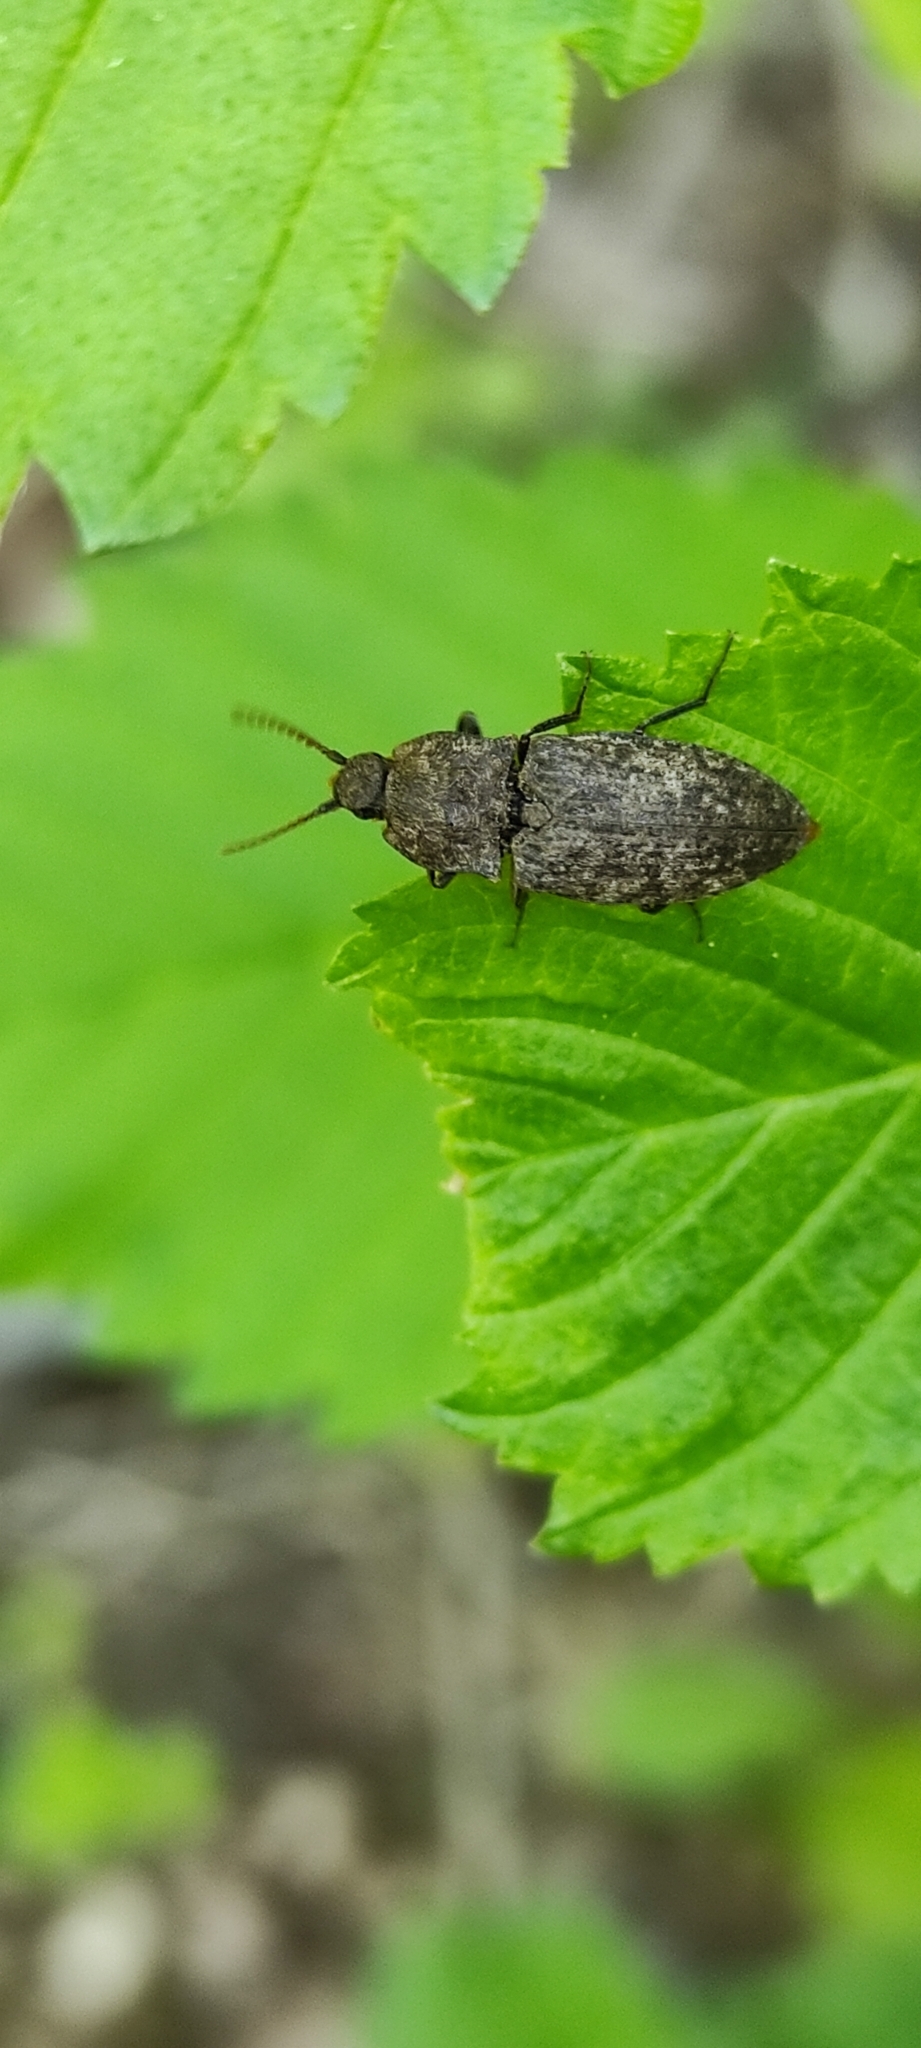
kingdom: Animalia
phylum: Arthropoda
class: Insecta
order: Coleoptera
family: Elateridae
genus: Agrypnus
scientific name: Agrypnus murinus
